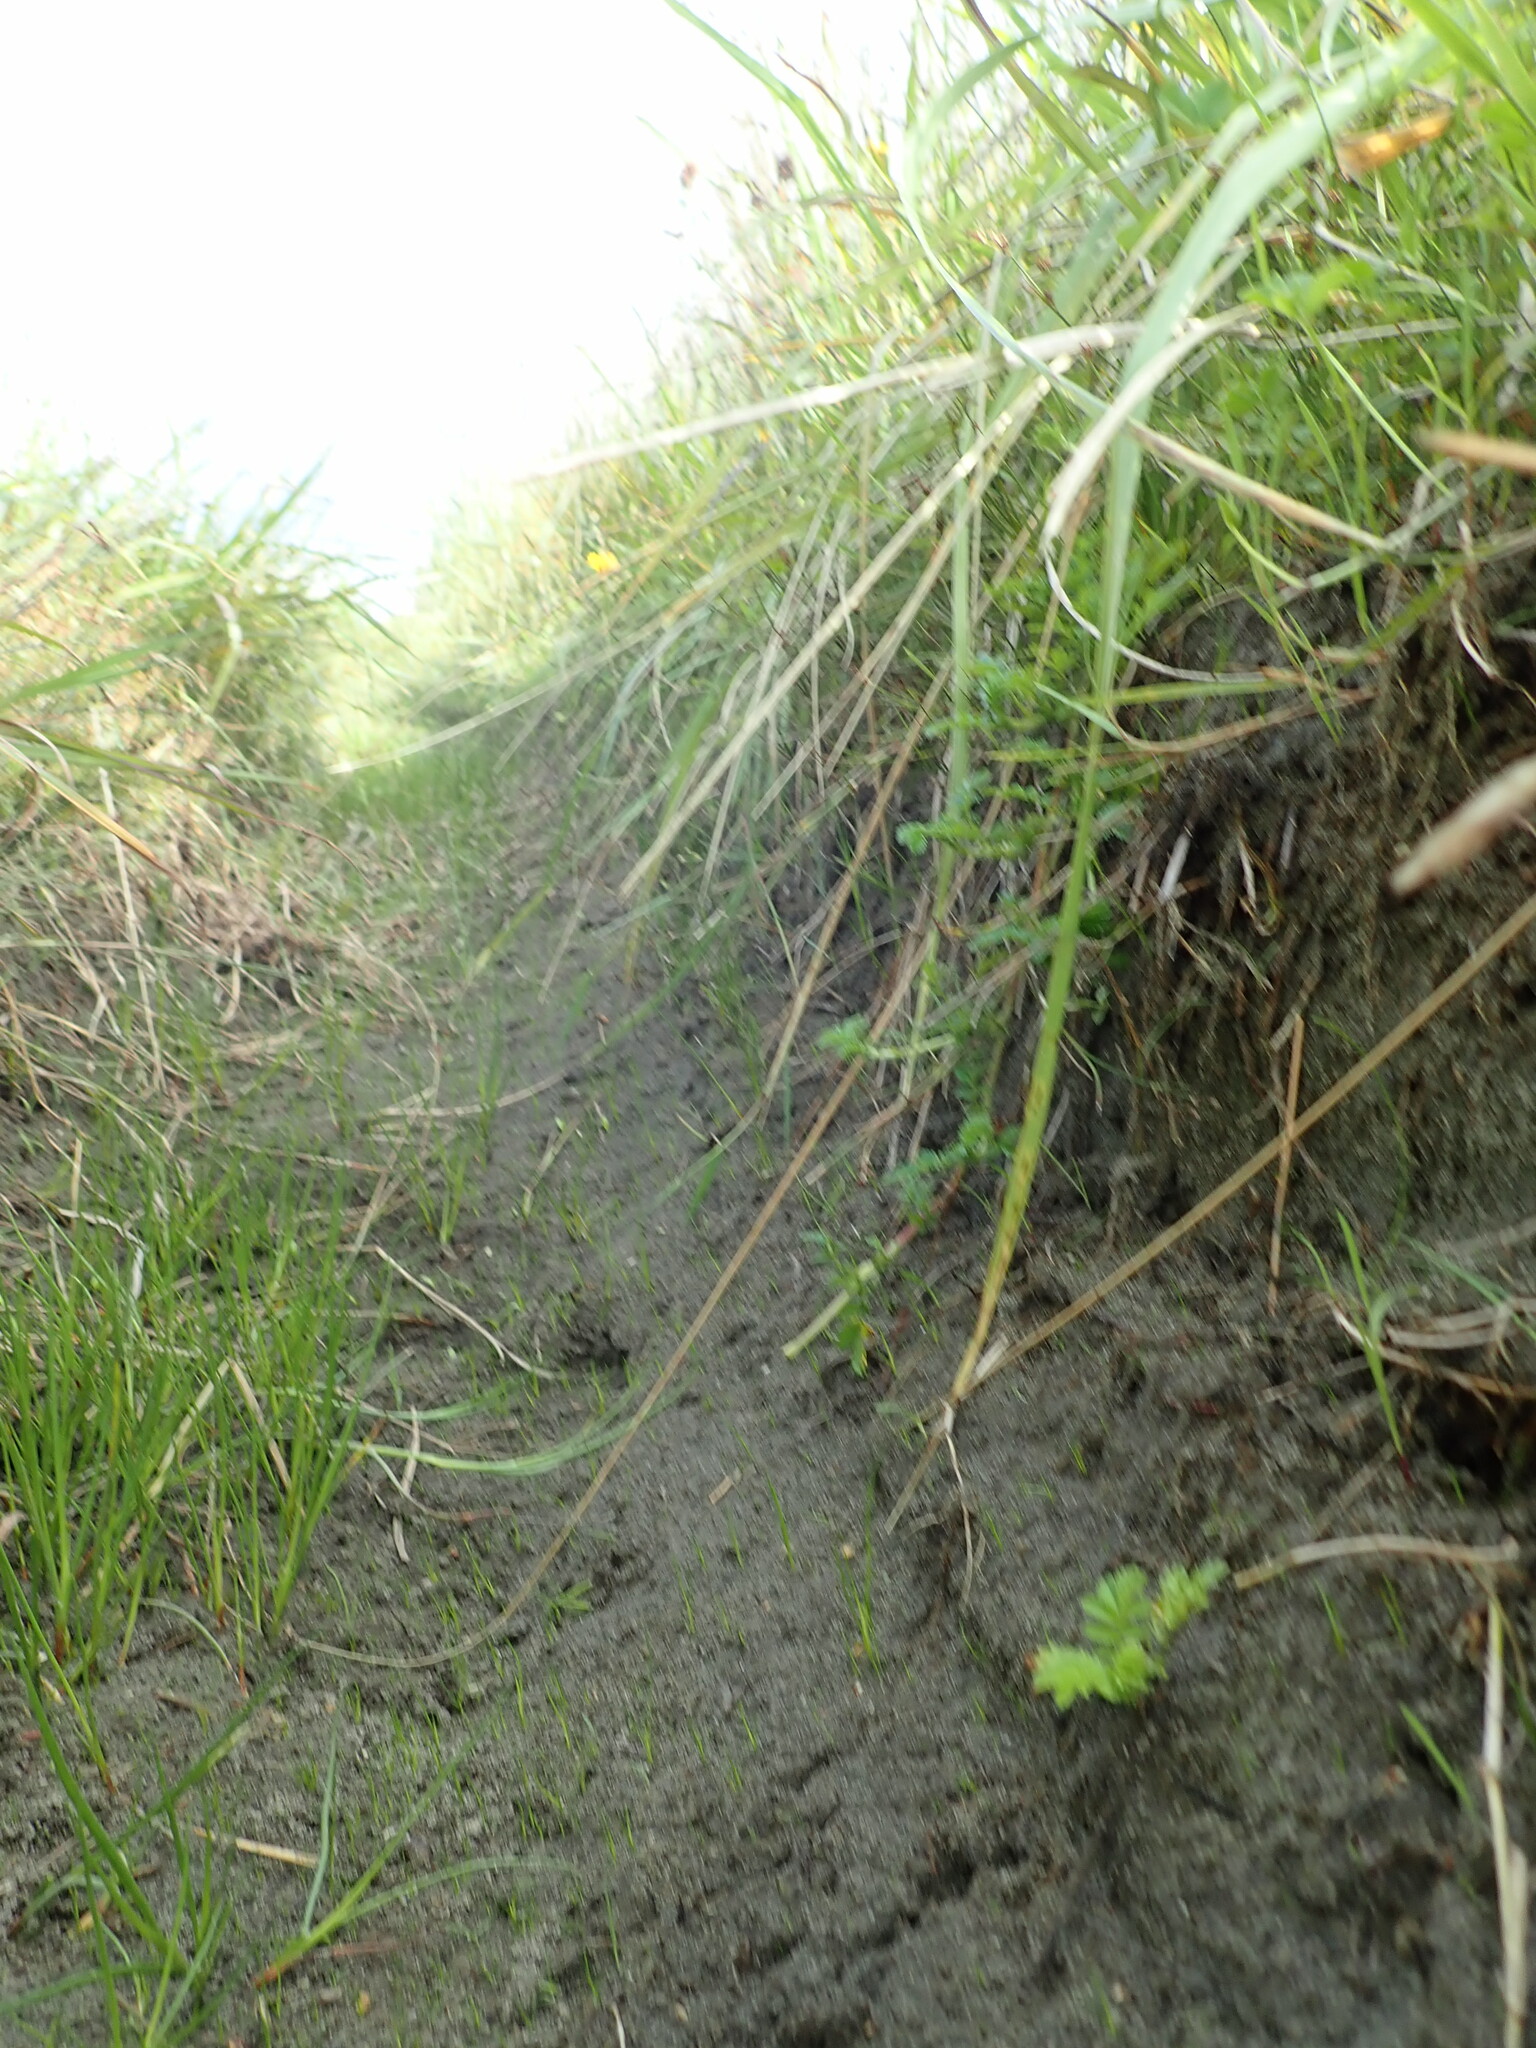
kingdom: Plantae
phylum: Tracheophyta
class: Magnoliopsida
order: Rosales
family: Rosaceae
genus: Acaena
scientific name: Acaena novae-zelandiae
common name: Pirri-pirri-bur
